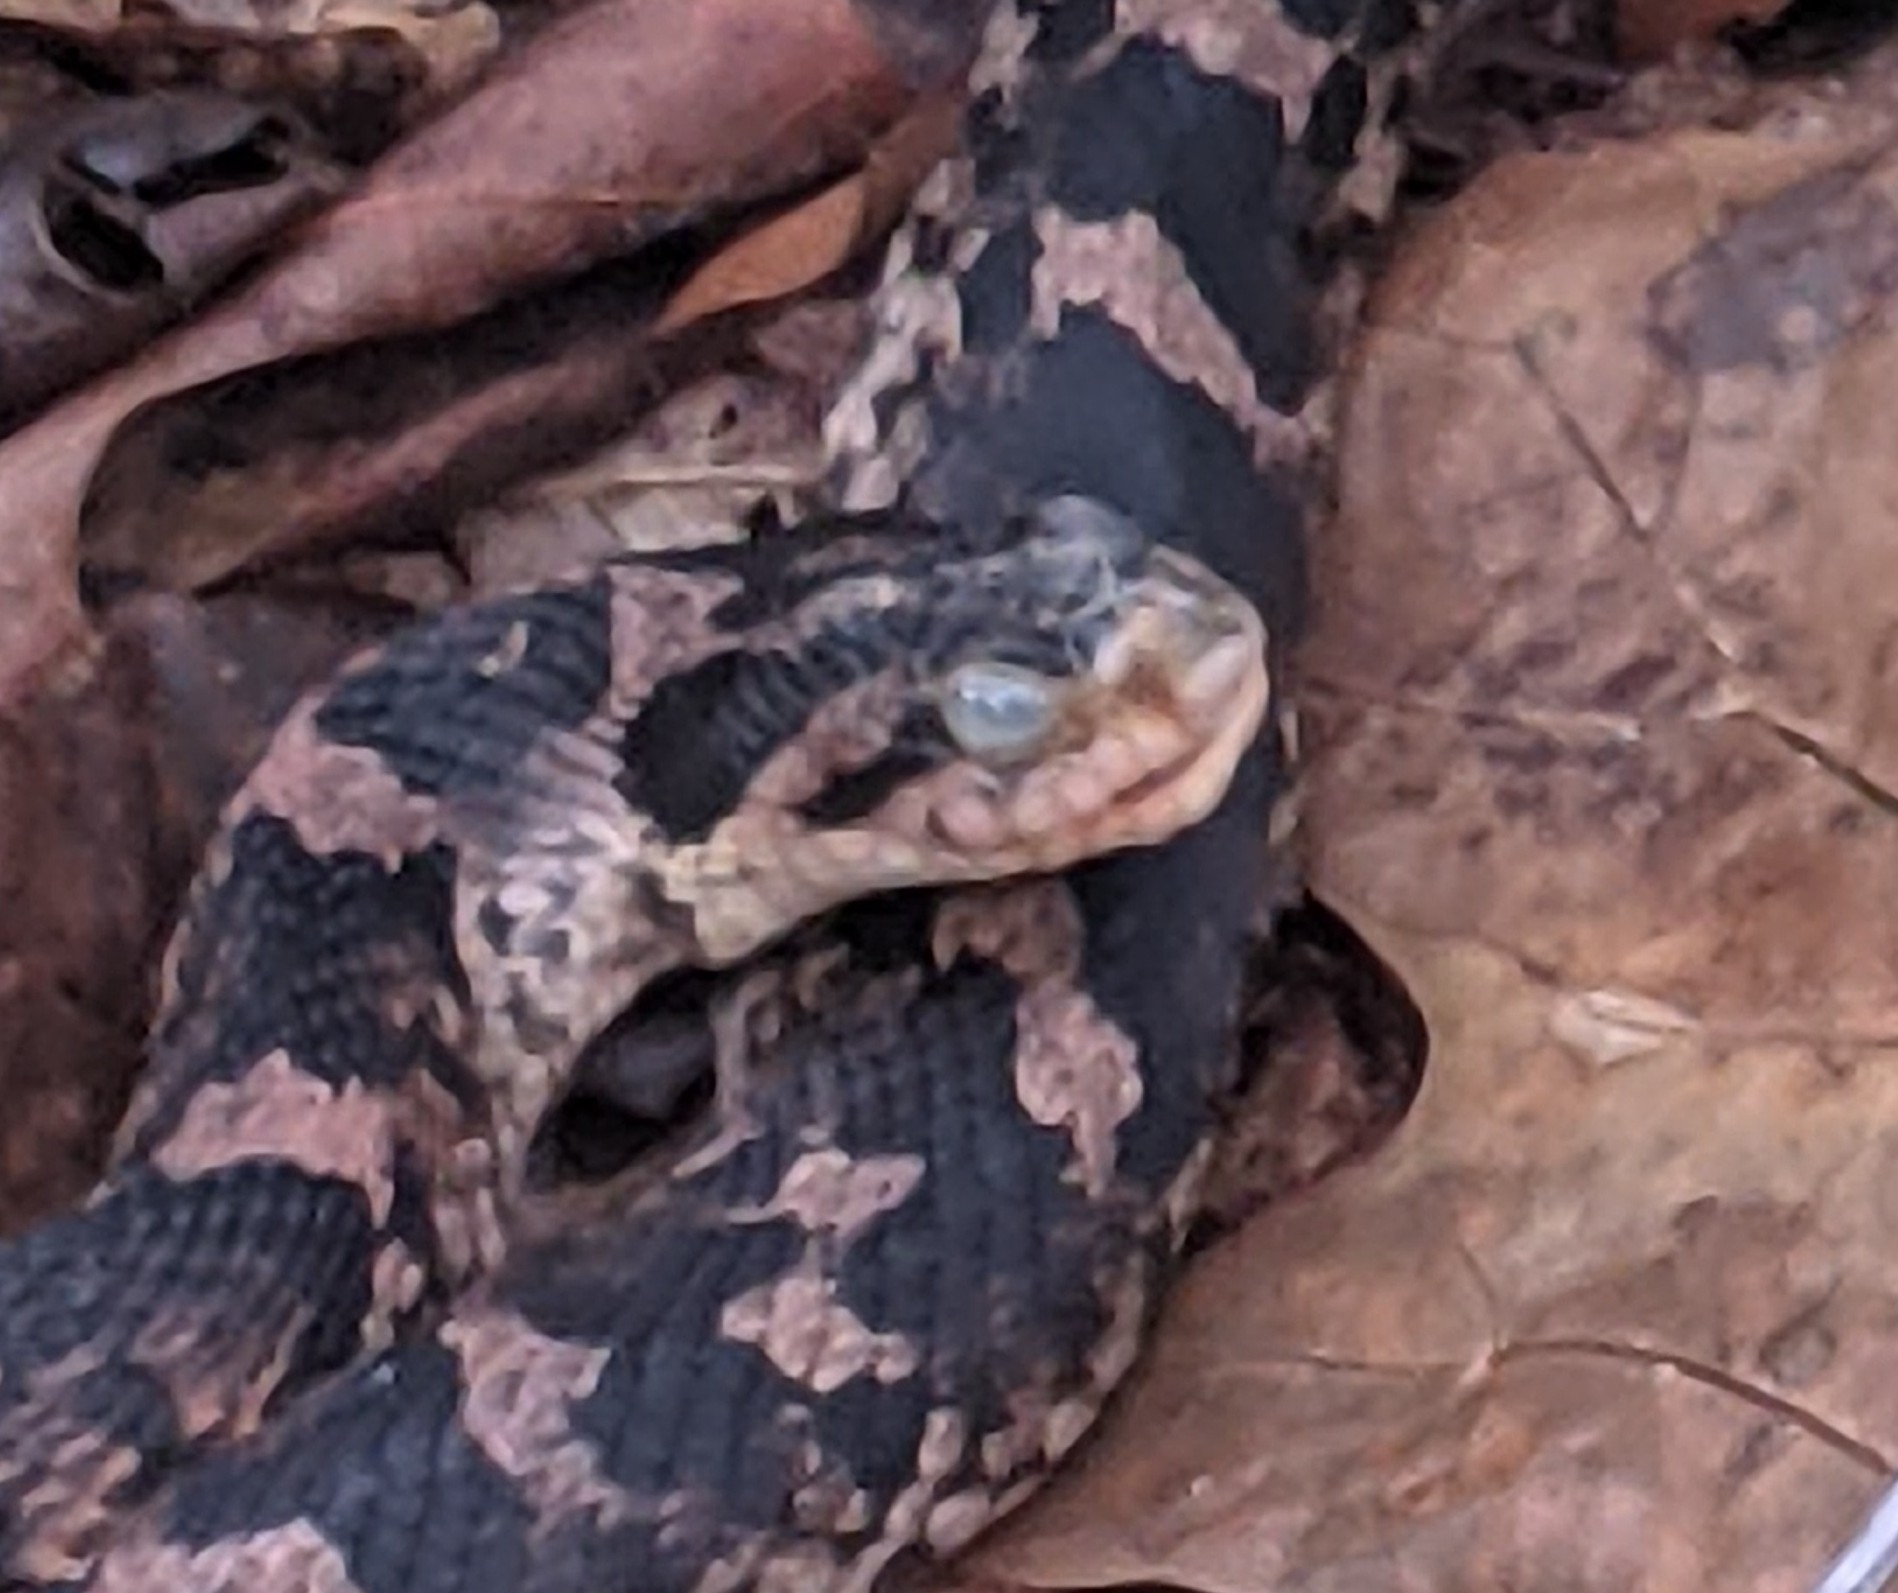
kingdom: Animalia
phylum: Chordata
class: Squamata
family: Colubridae
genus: Heterodon
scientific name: Heterodon platirhinos
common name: Eastern hognose snake
